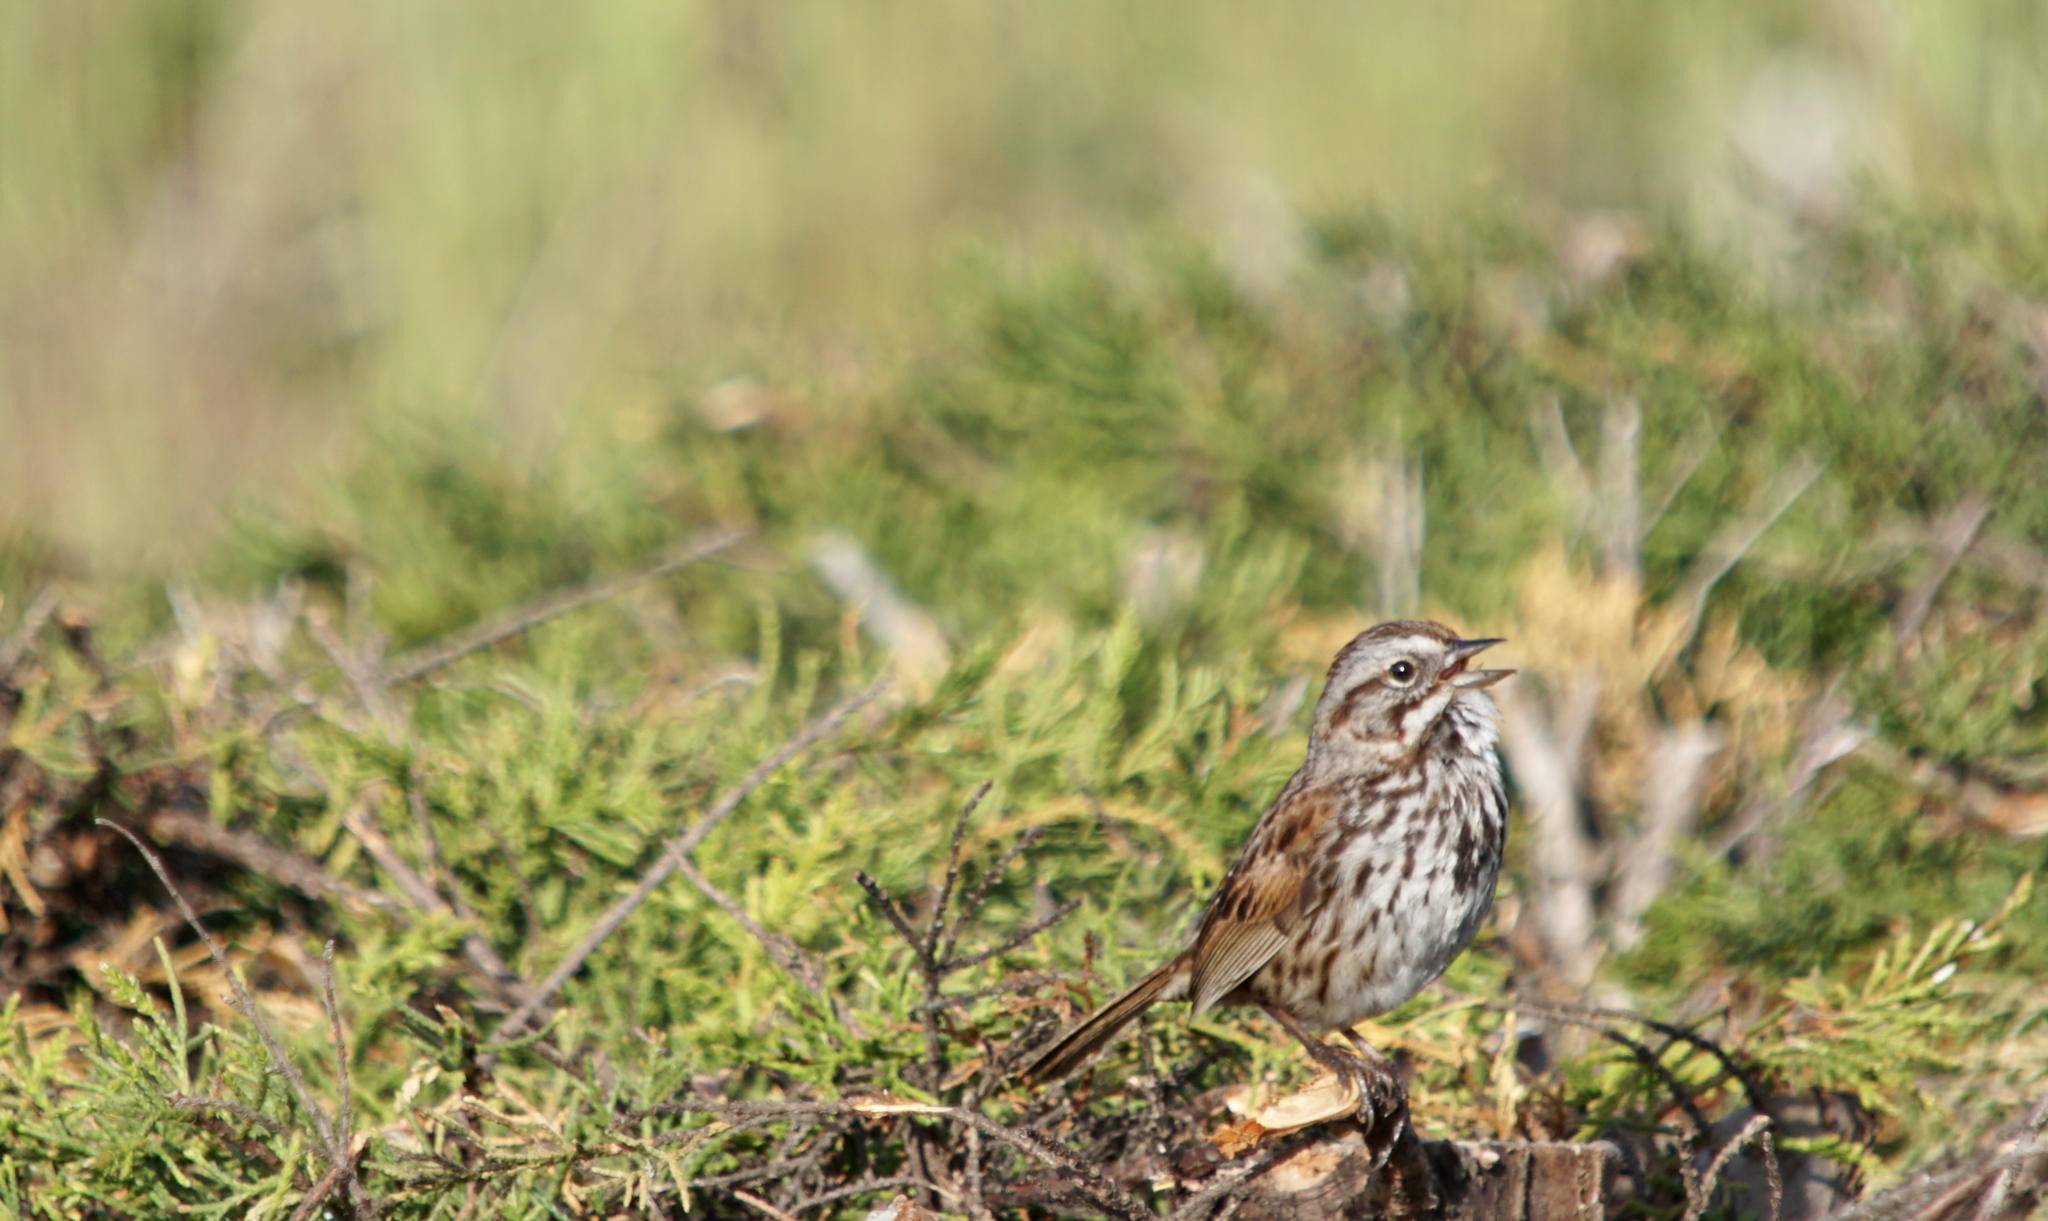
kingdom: Animalia
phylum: Chordata
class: Aves
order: Passeriformes
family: Passerellidae
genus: Melospiza
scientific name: Melospiza melodia
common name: Song sparrow
